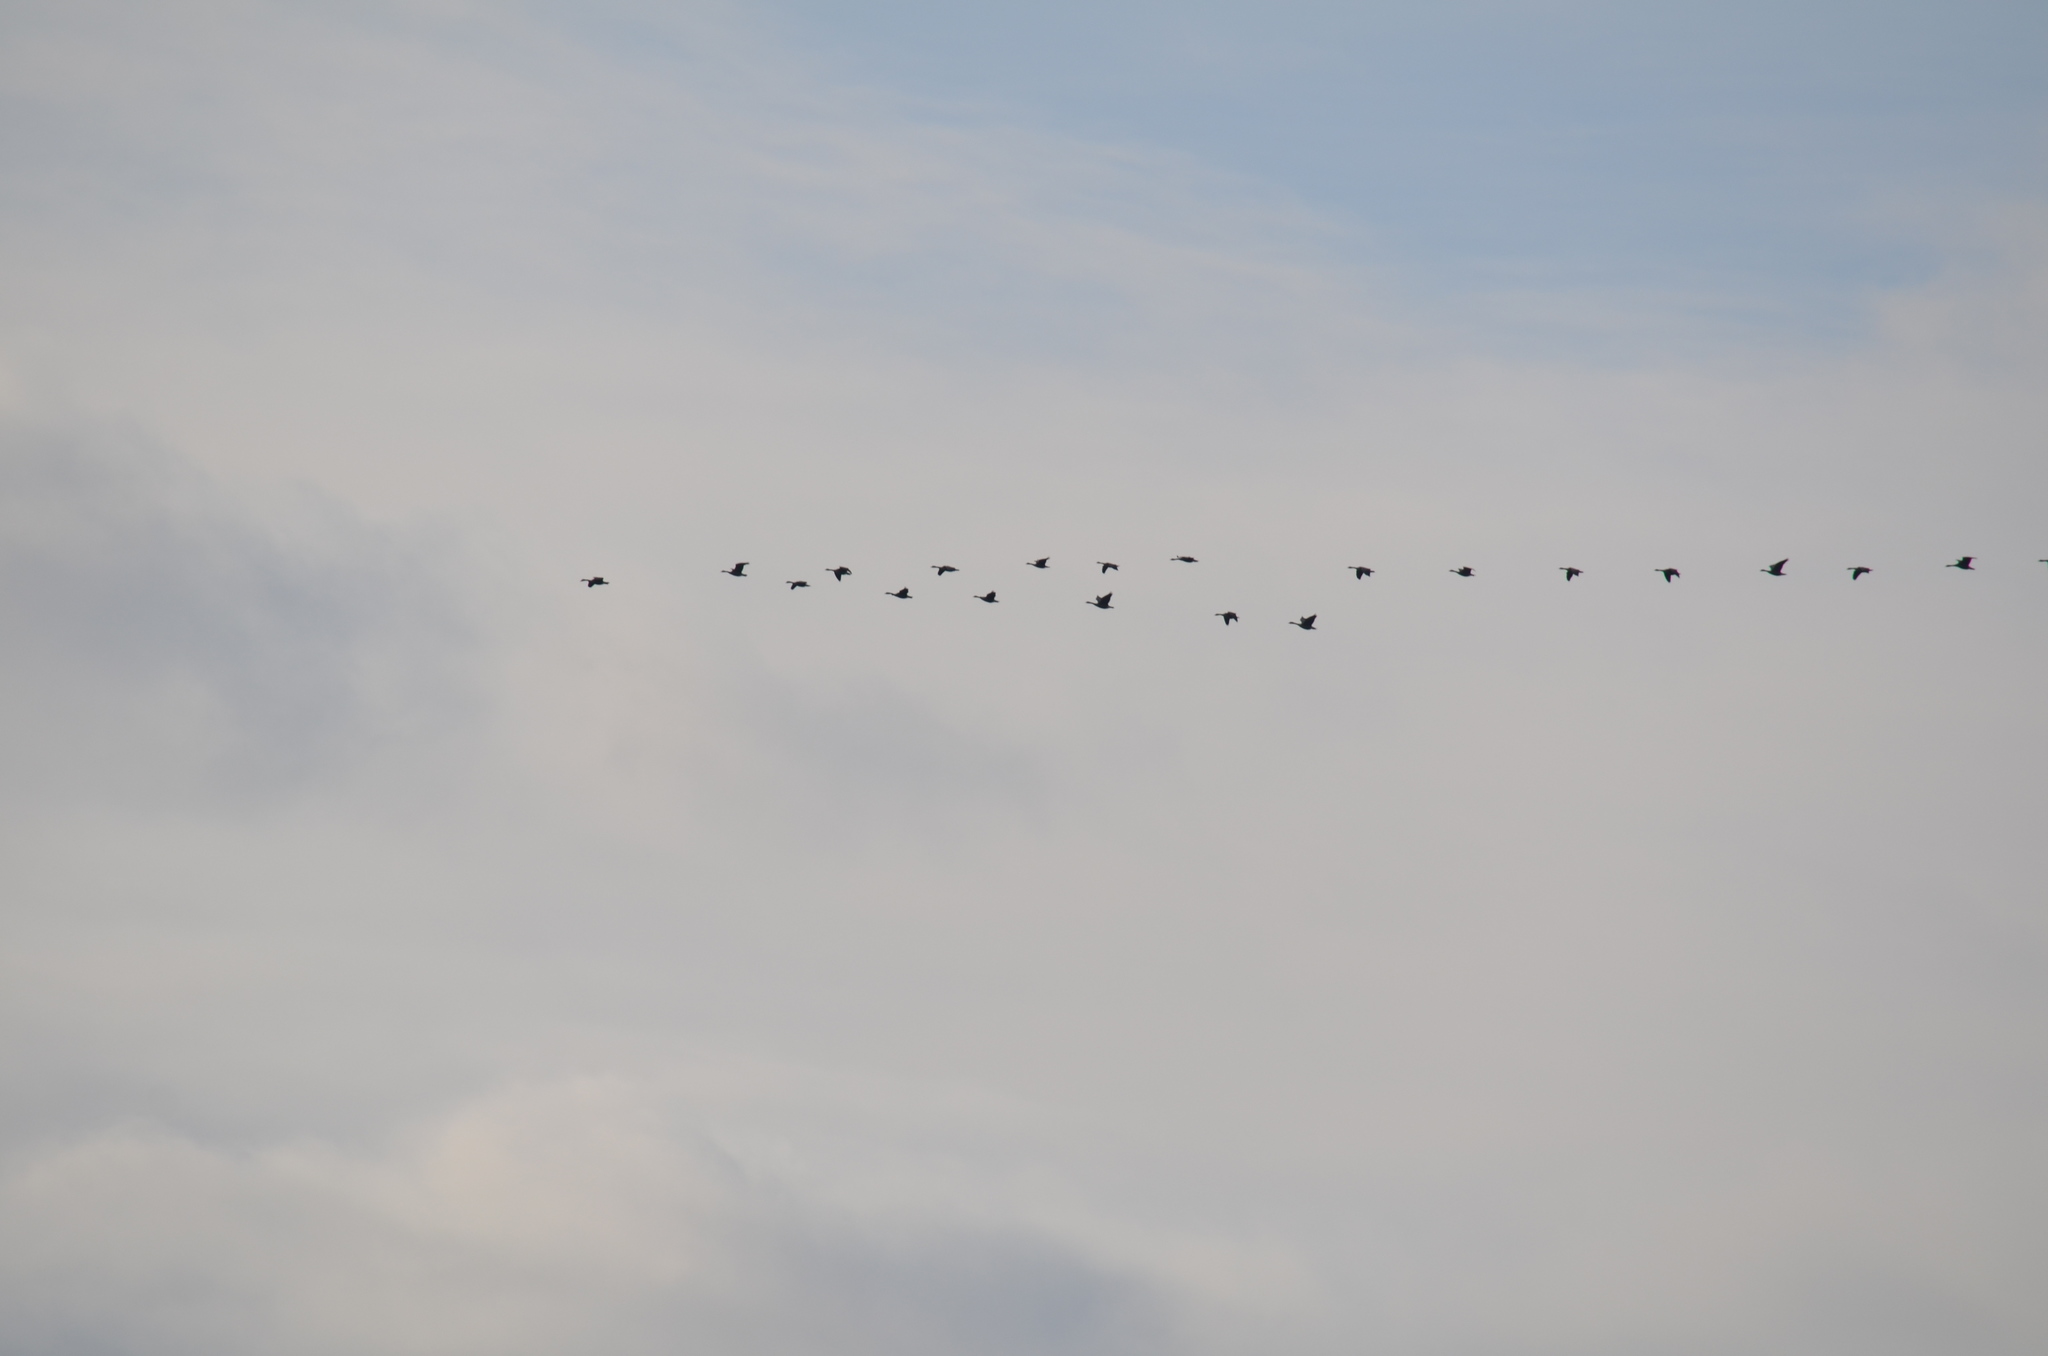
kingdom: Animalia
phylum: Chordata
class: Aves
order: Anseriformes
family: Anatidae
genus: Branta
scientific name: Branta canadensis
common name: Canada goose
